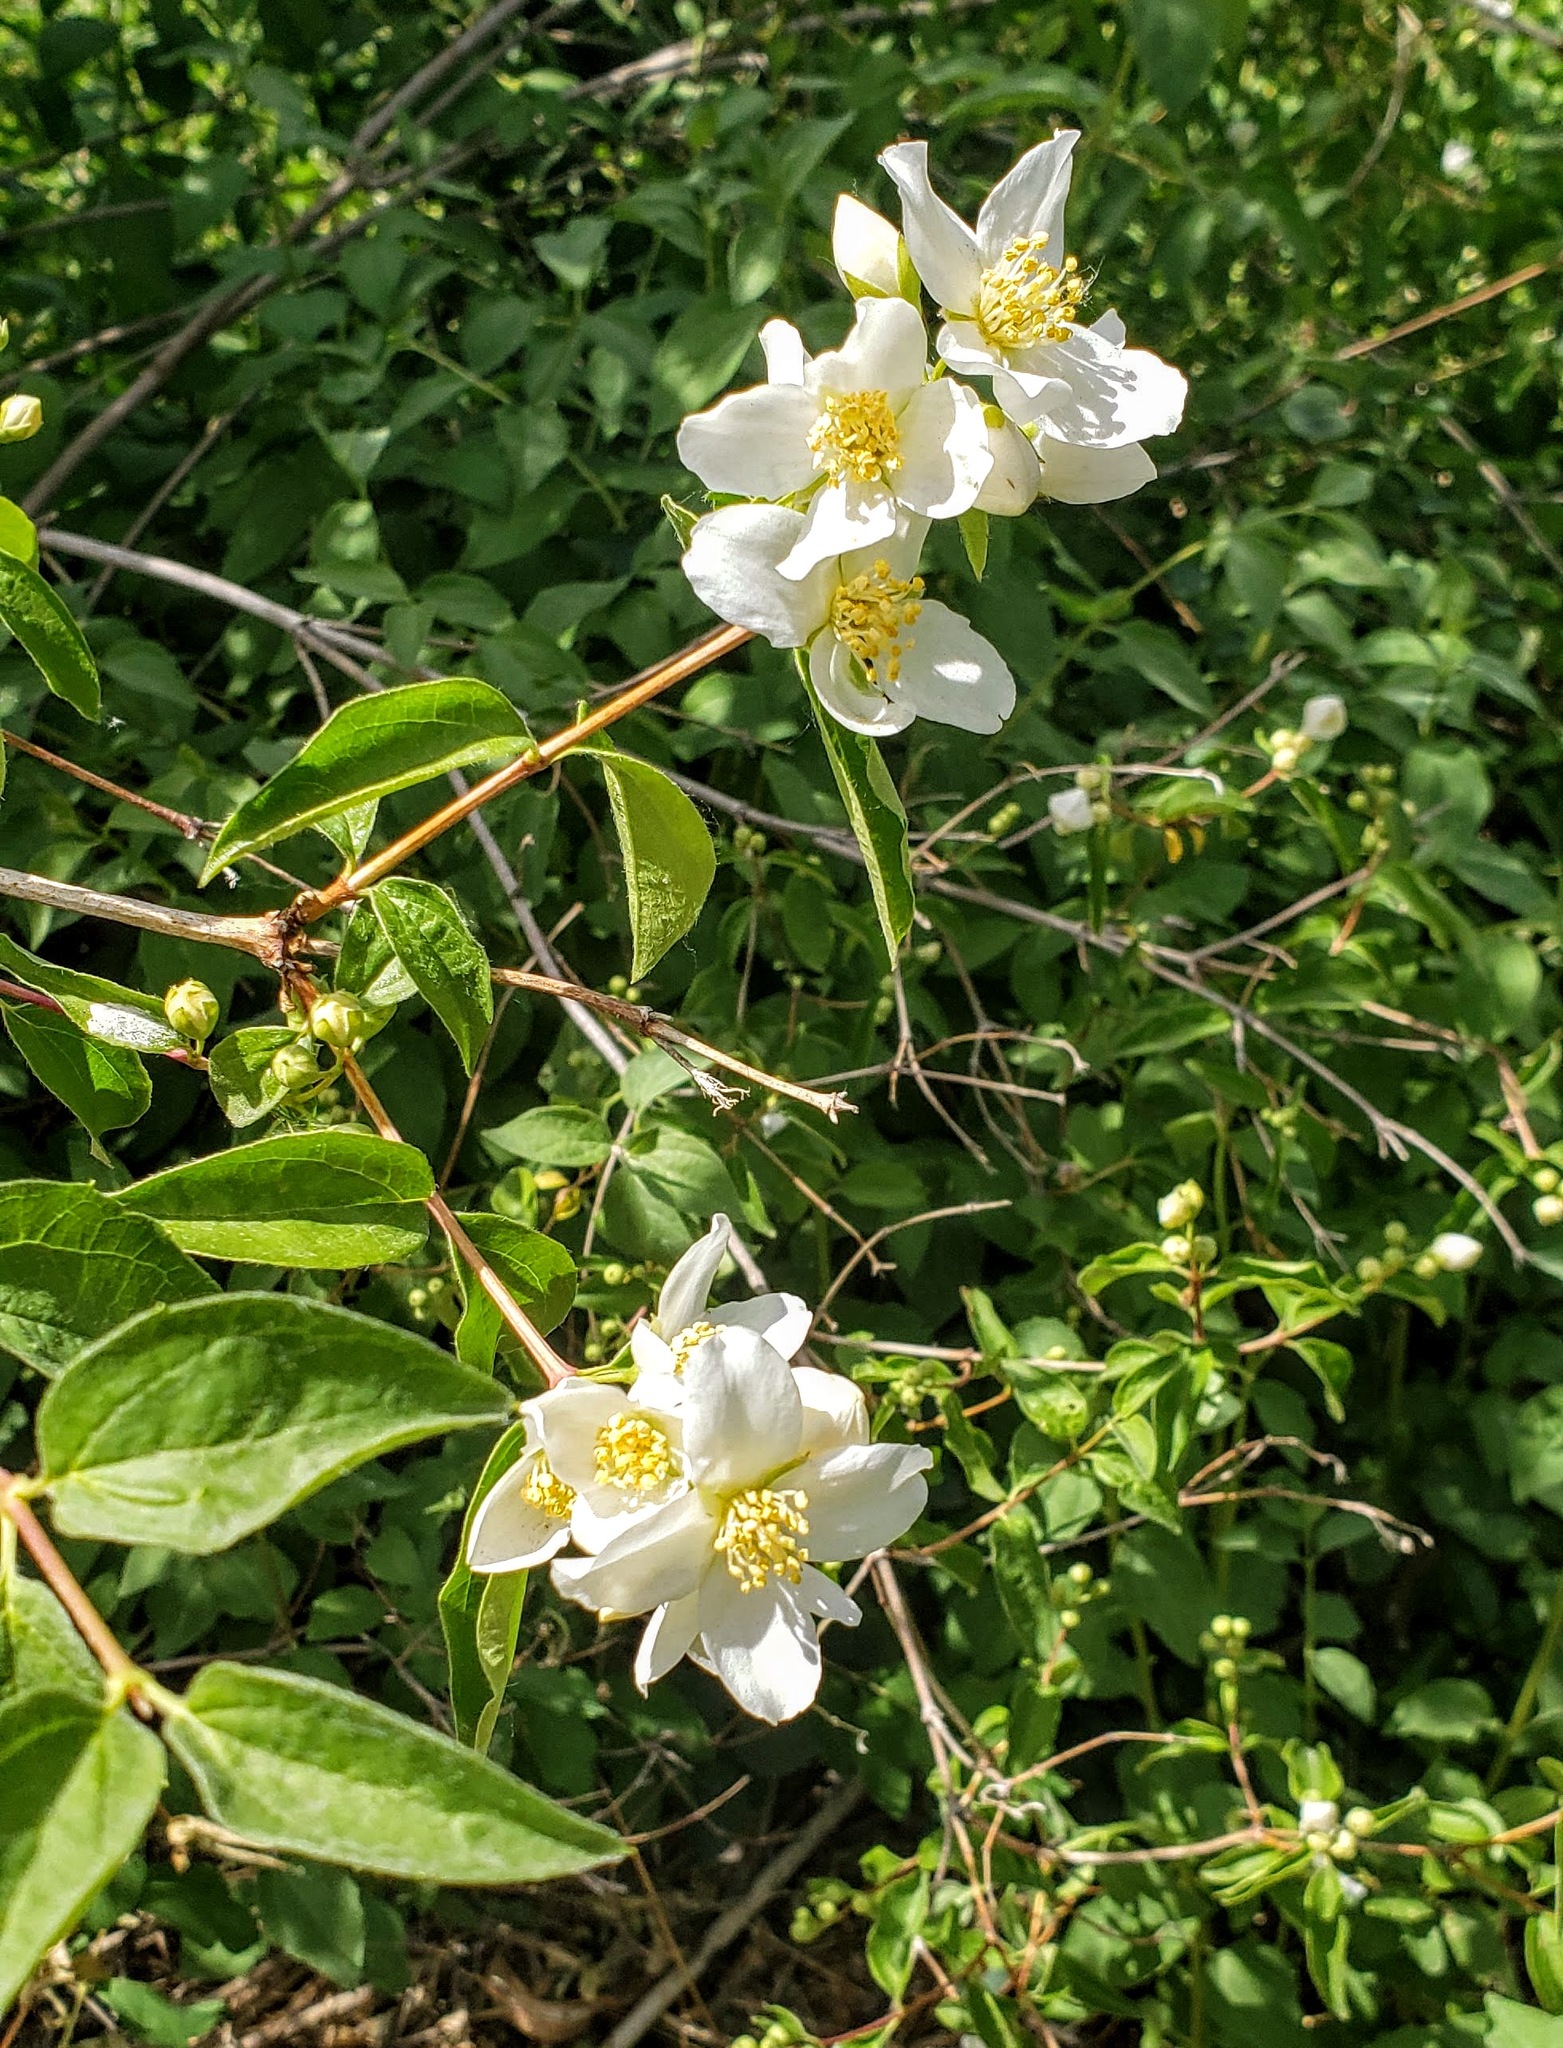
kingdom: Plantae
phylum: Tracheophyta
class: Magnoliopsida
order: Cornales
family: Hydrangeaceae
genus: Philadelphus
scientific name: Philadelphus lewisii
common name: Lewis's mock orange
